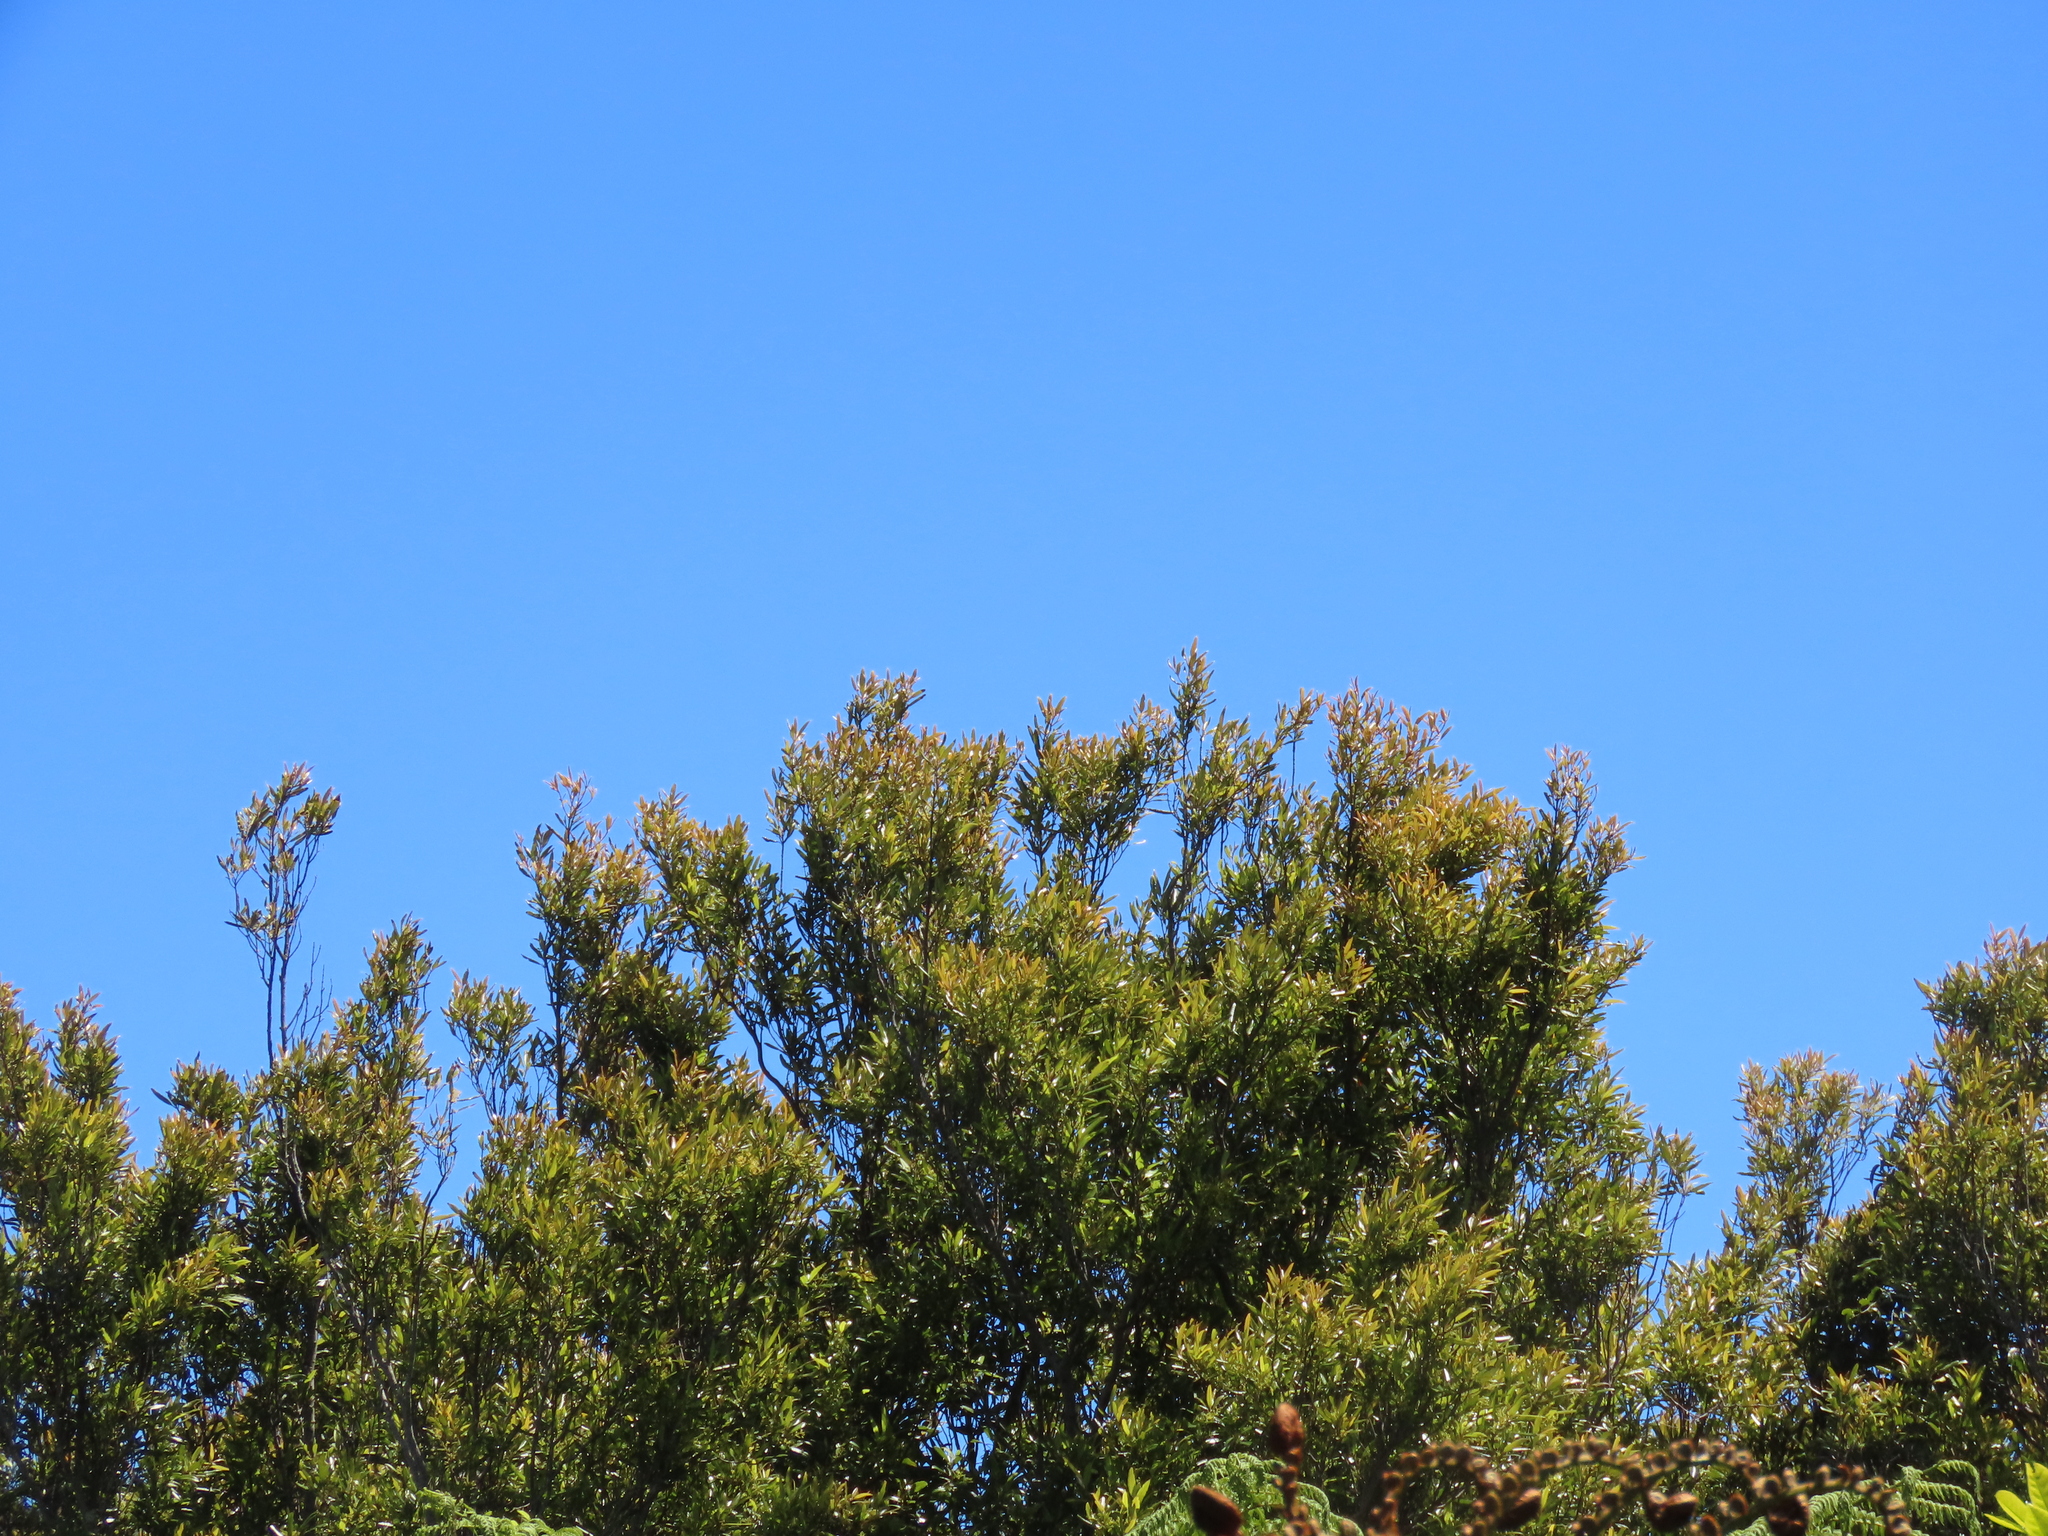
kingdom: Plantae
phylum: Tracheophyta
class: Magnoliopsida
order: Laurales
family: Lauraceae
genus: Beilschmiedia
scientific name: Beilschmiedia tawa
